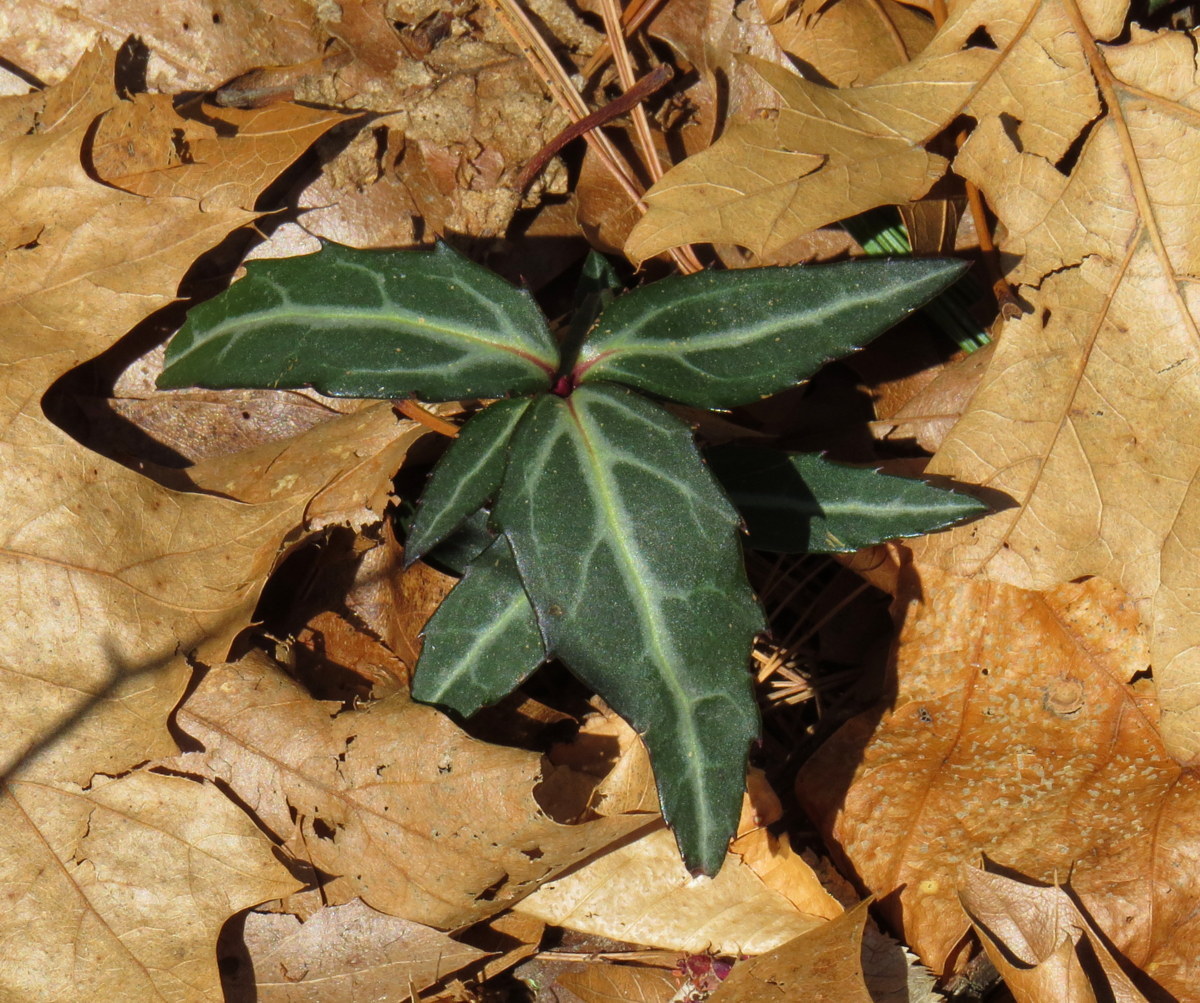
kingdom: Plantae
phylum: Tracheophyta
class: Magnoliopsida
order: Ericales
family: Ericaceae
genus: Chimaphila
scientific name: Chimaphila maculata
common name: Spotted pipsissewa
